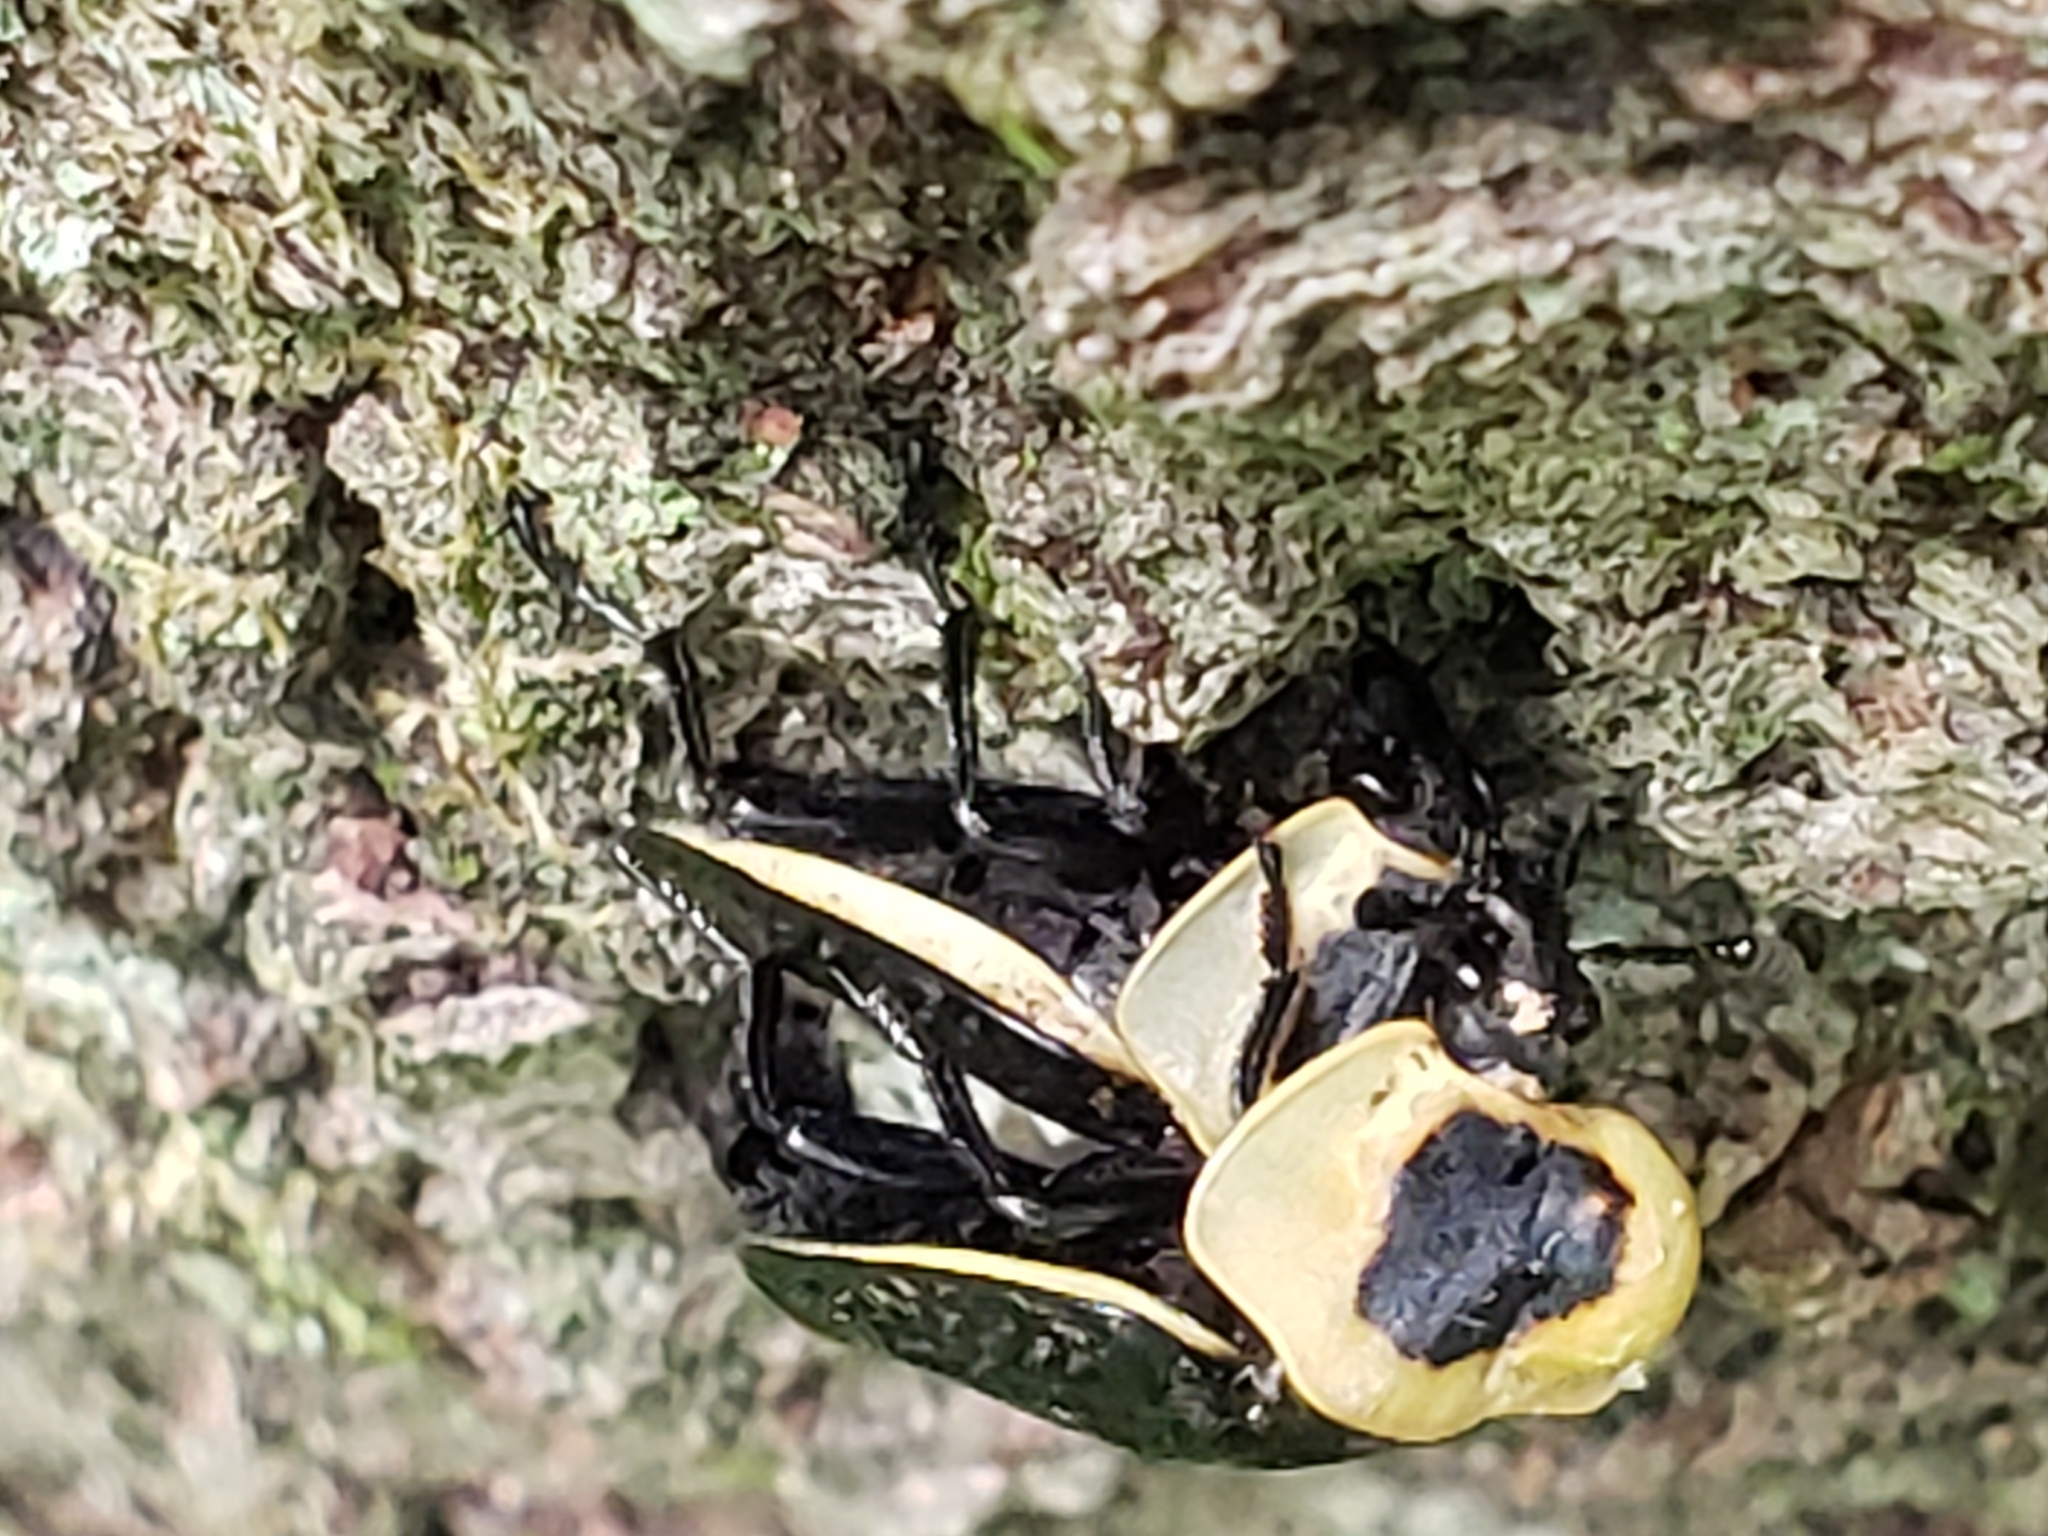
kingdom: Animalia
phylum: Arthropoda
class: Insecta
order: Coleoptera
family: Staphylinidae
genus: Necrophila
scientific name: Necrophila americana
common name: American carrion beetle
